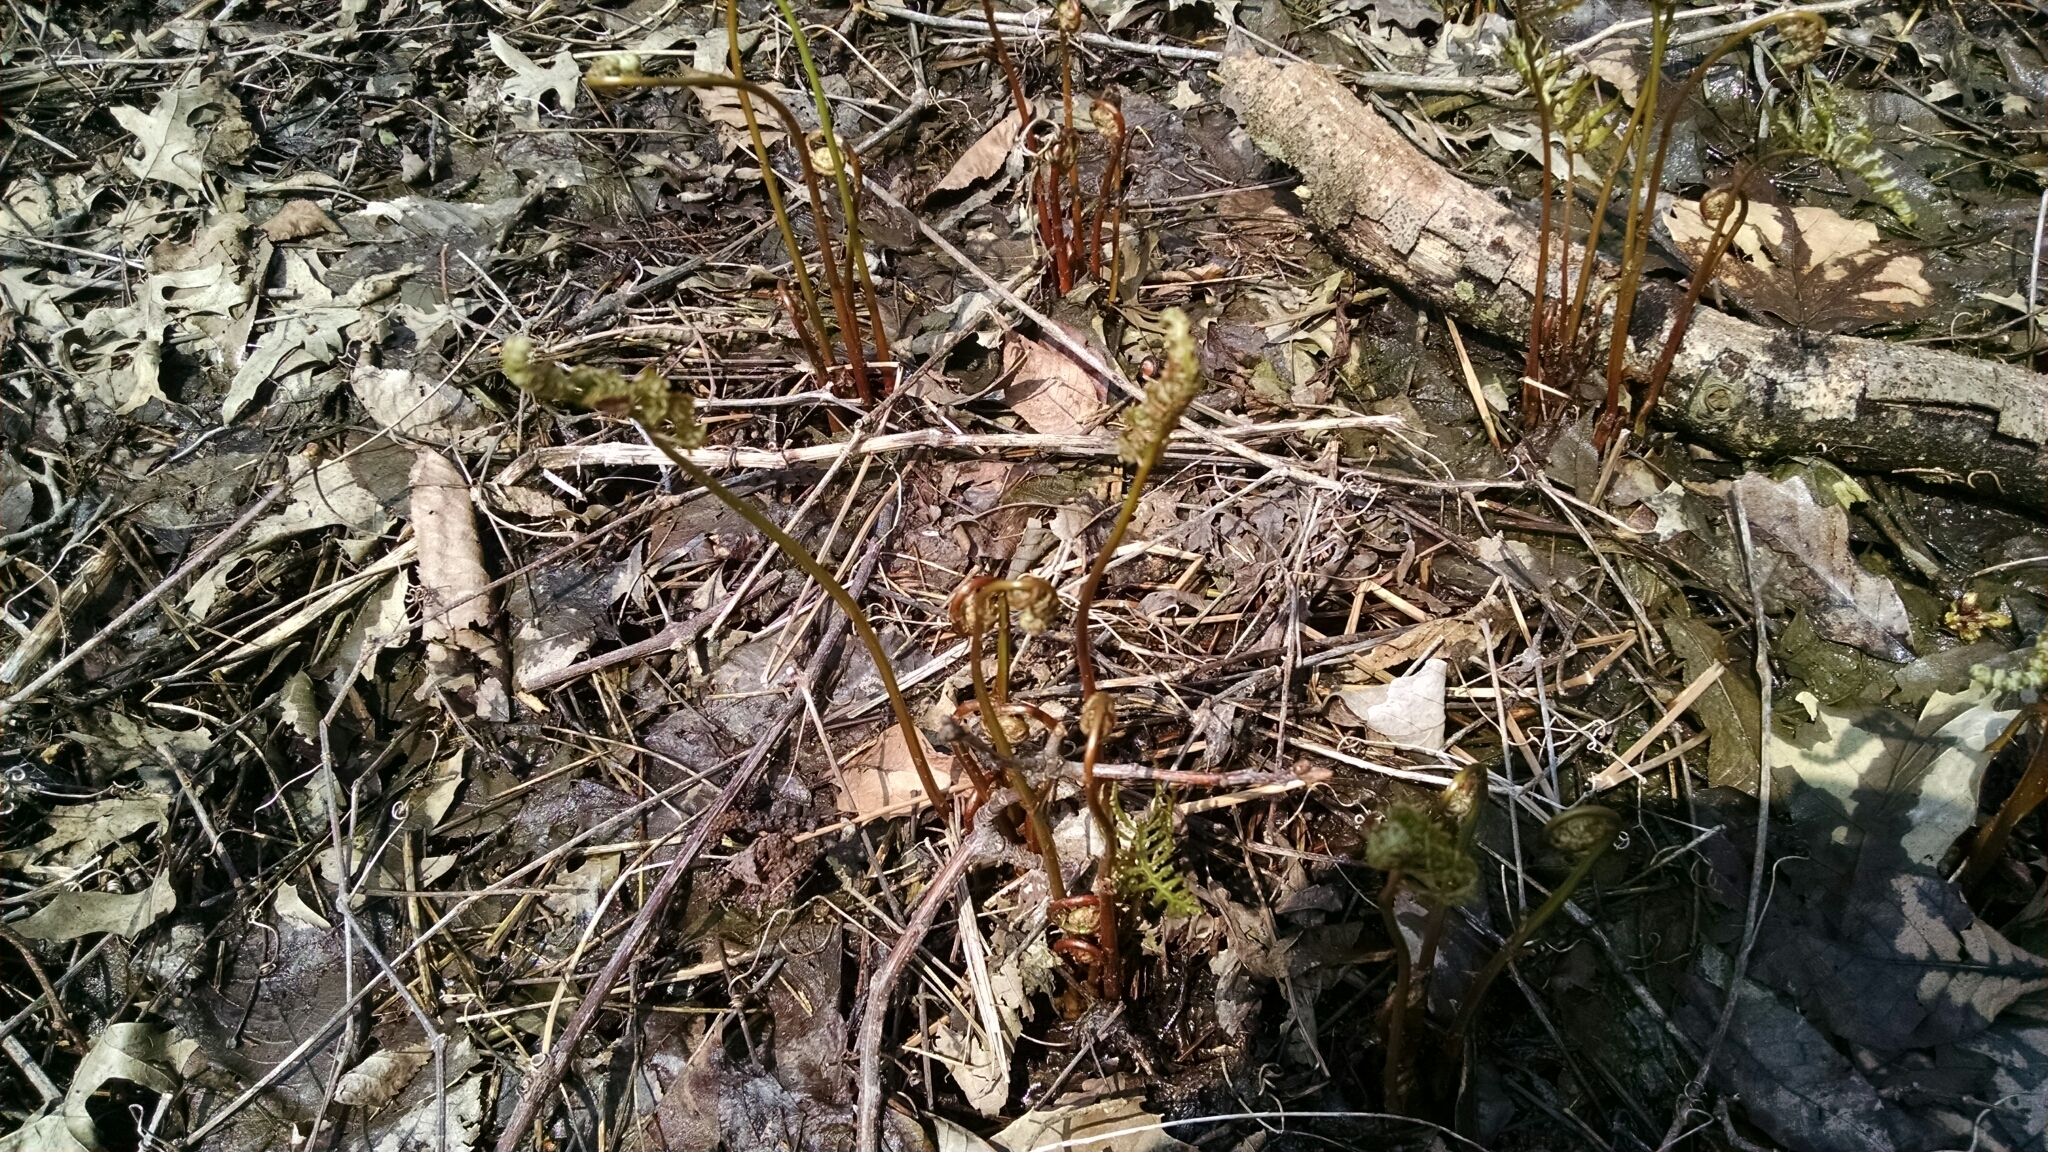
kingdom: Plantae
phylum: Tracheophyta
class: Polypodiopsida
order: Polypodiales
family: Onocleaceae
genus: Onoclea
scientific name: Onoclea sensibilis
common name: Sensitive fern
